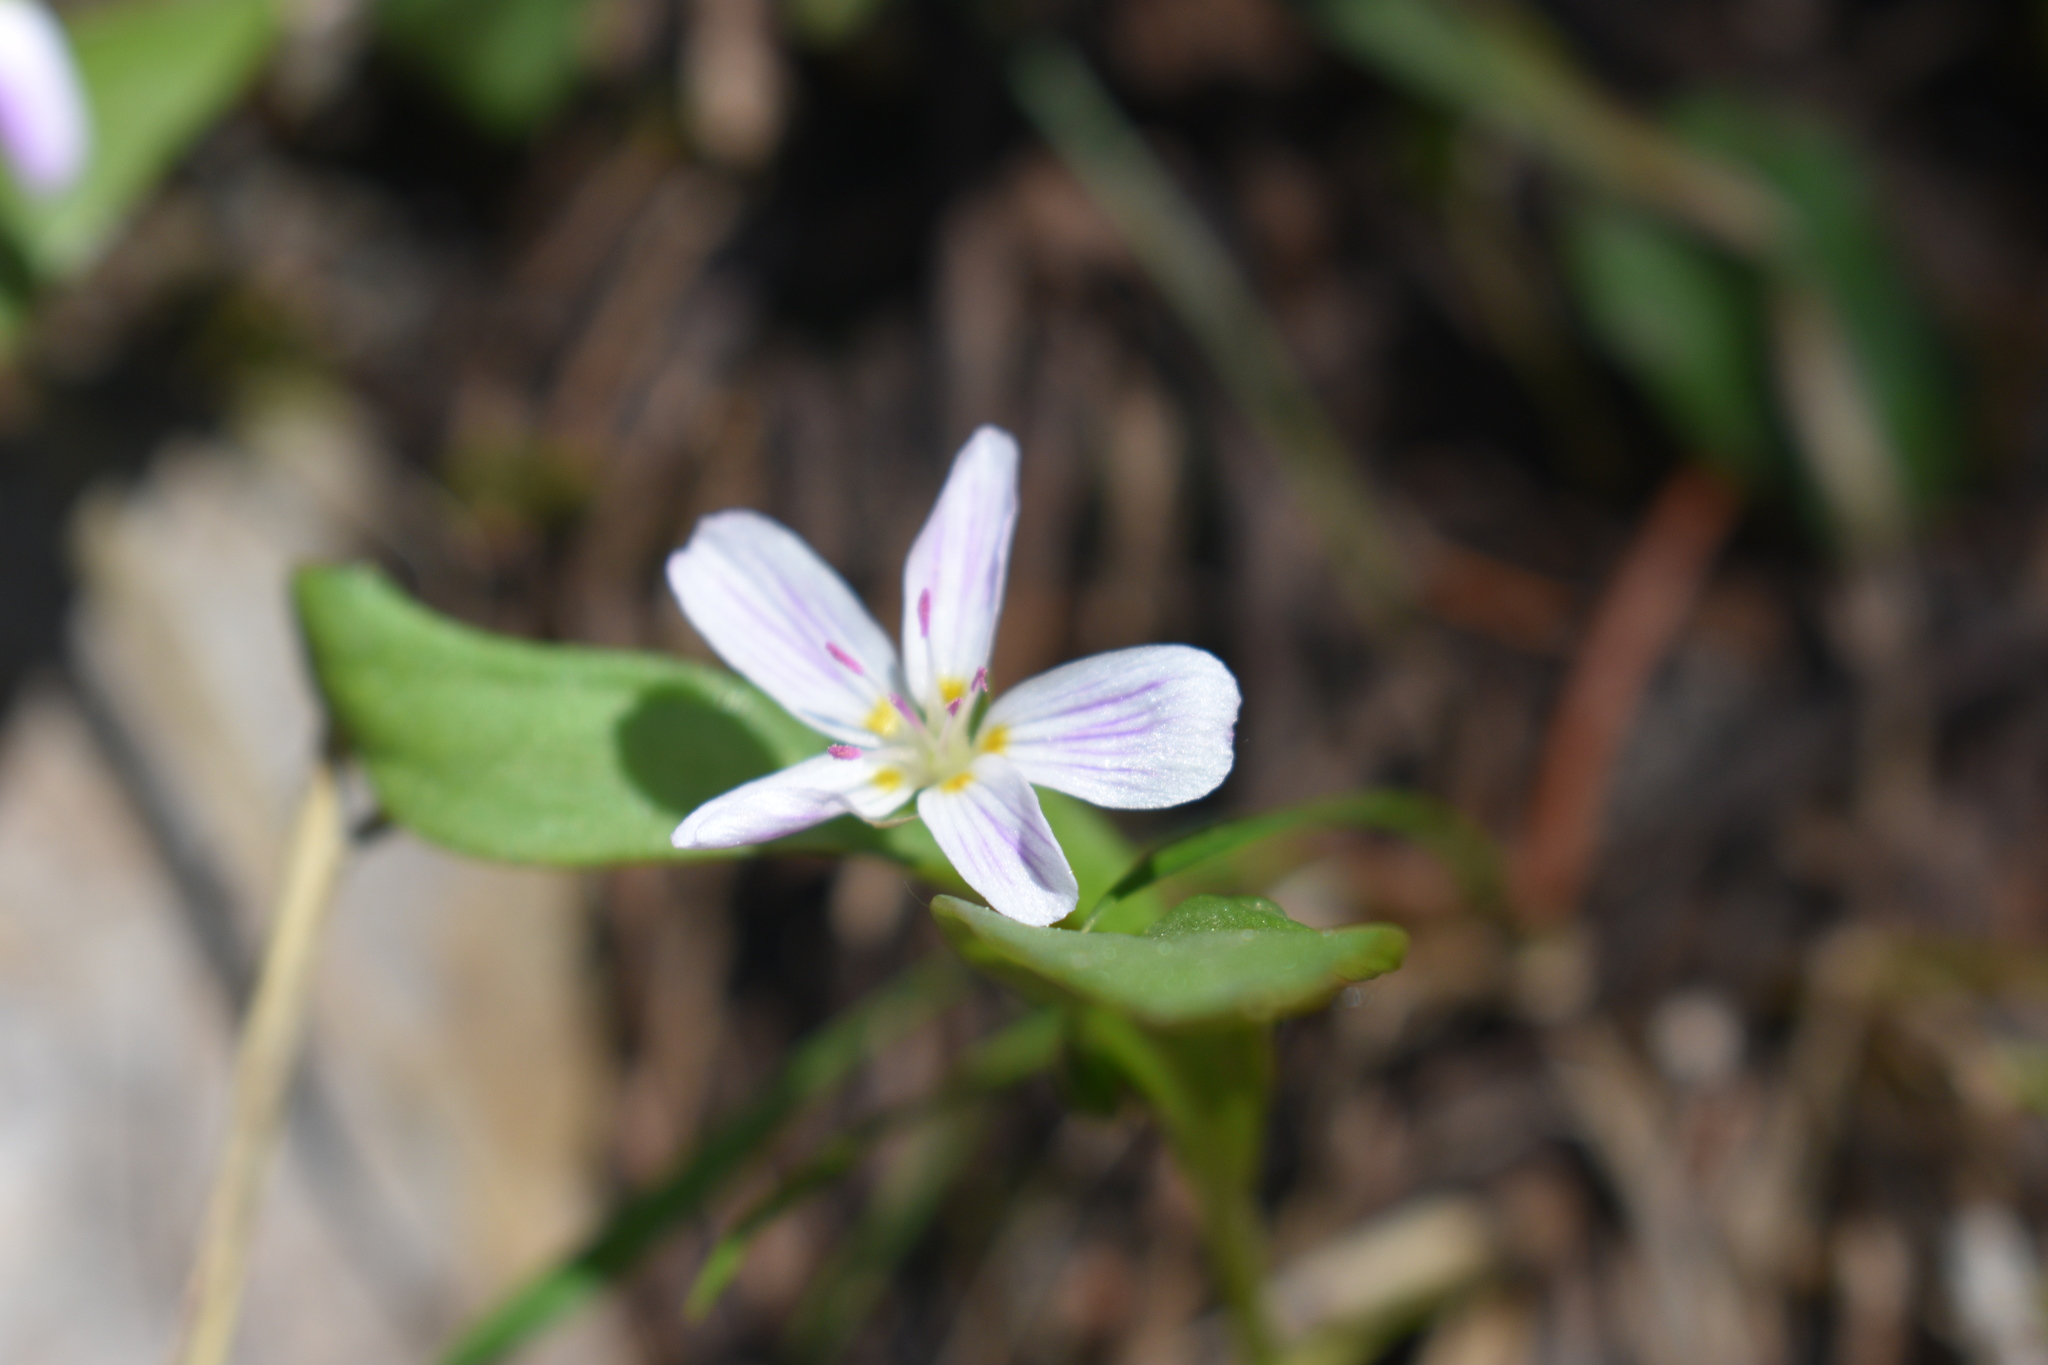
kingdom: Plantae
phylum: Tracheophyta
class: Magnoliopsida
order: Caryophyllales
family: Montiaceae
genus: Claytonia
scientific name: Claytonia lanceolata
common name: Western spring-beauty
